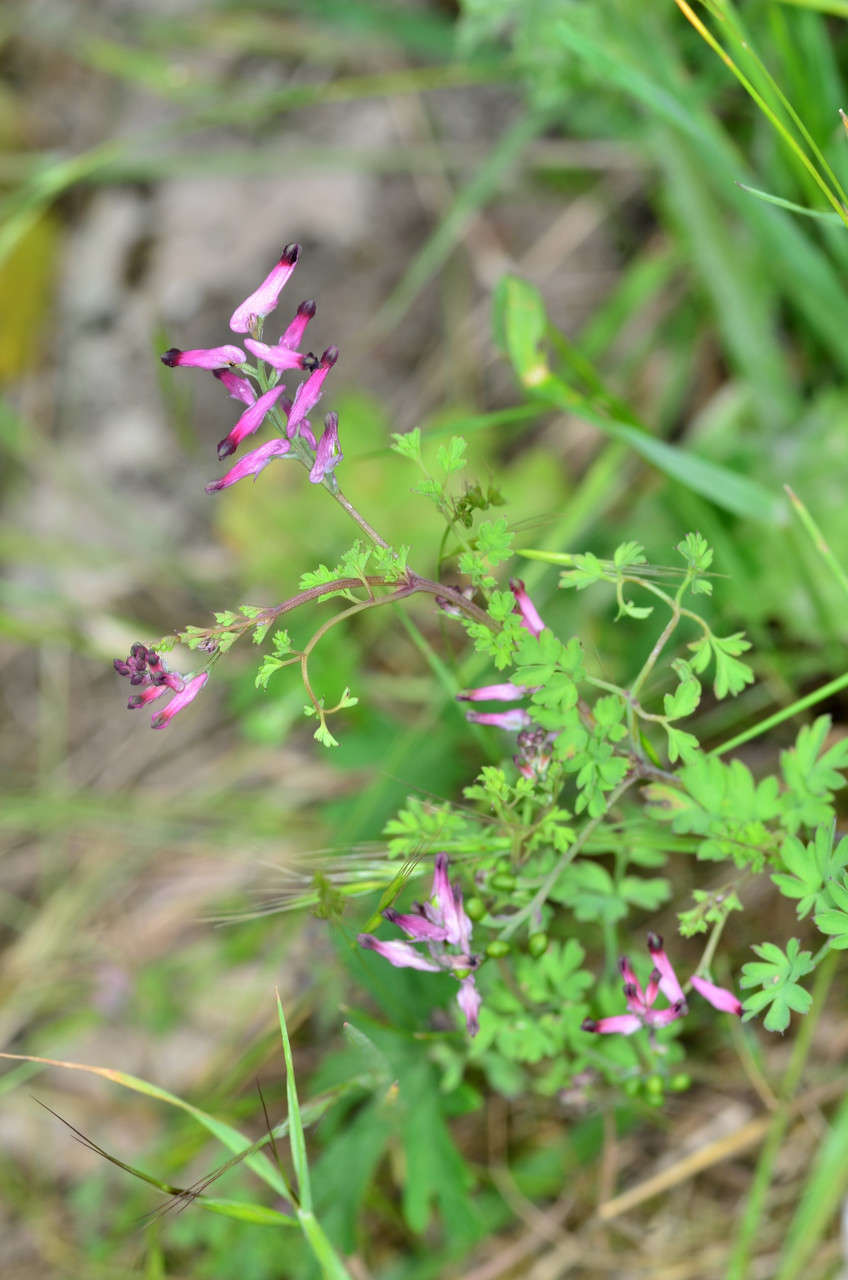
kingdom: Plantae
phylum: Tracheophyta
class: Magnoliopsida
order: Ranunculales
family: Papaveraceae
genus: Fumaria
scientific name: Fumaria muralis
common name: Common ramping-fumitory
